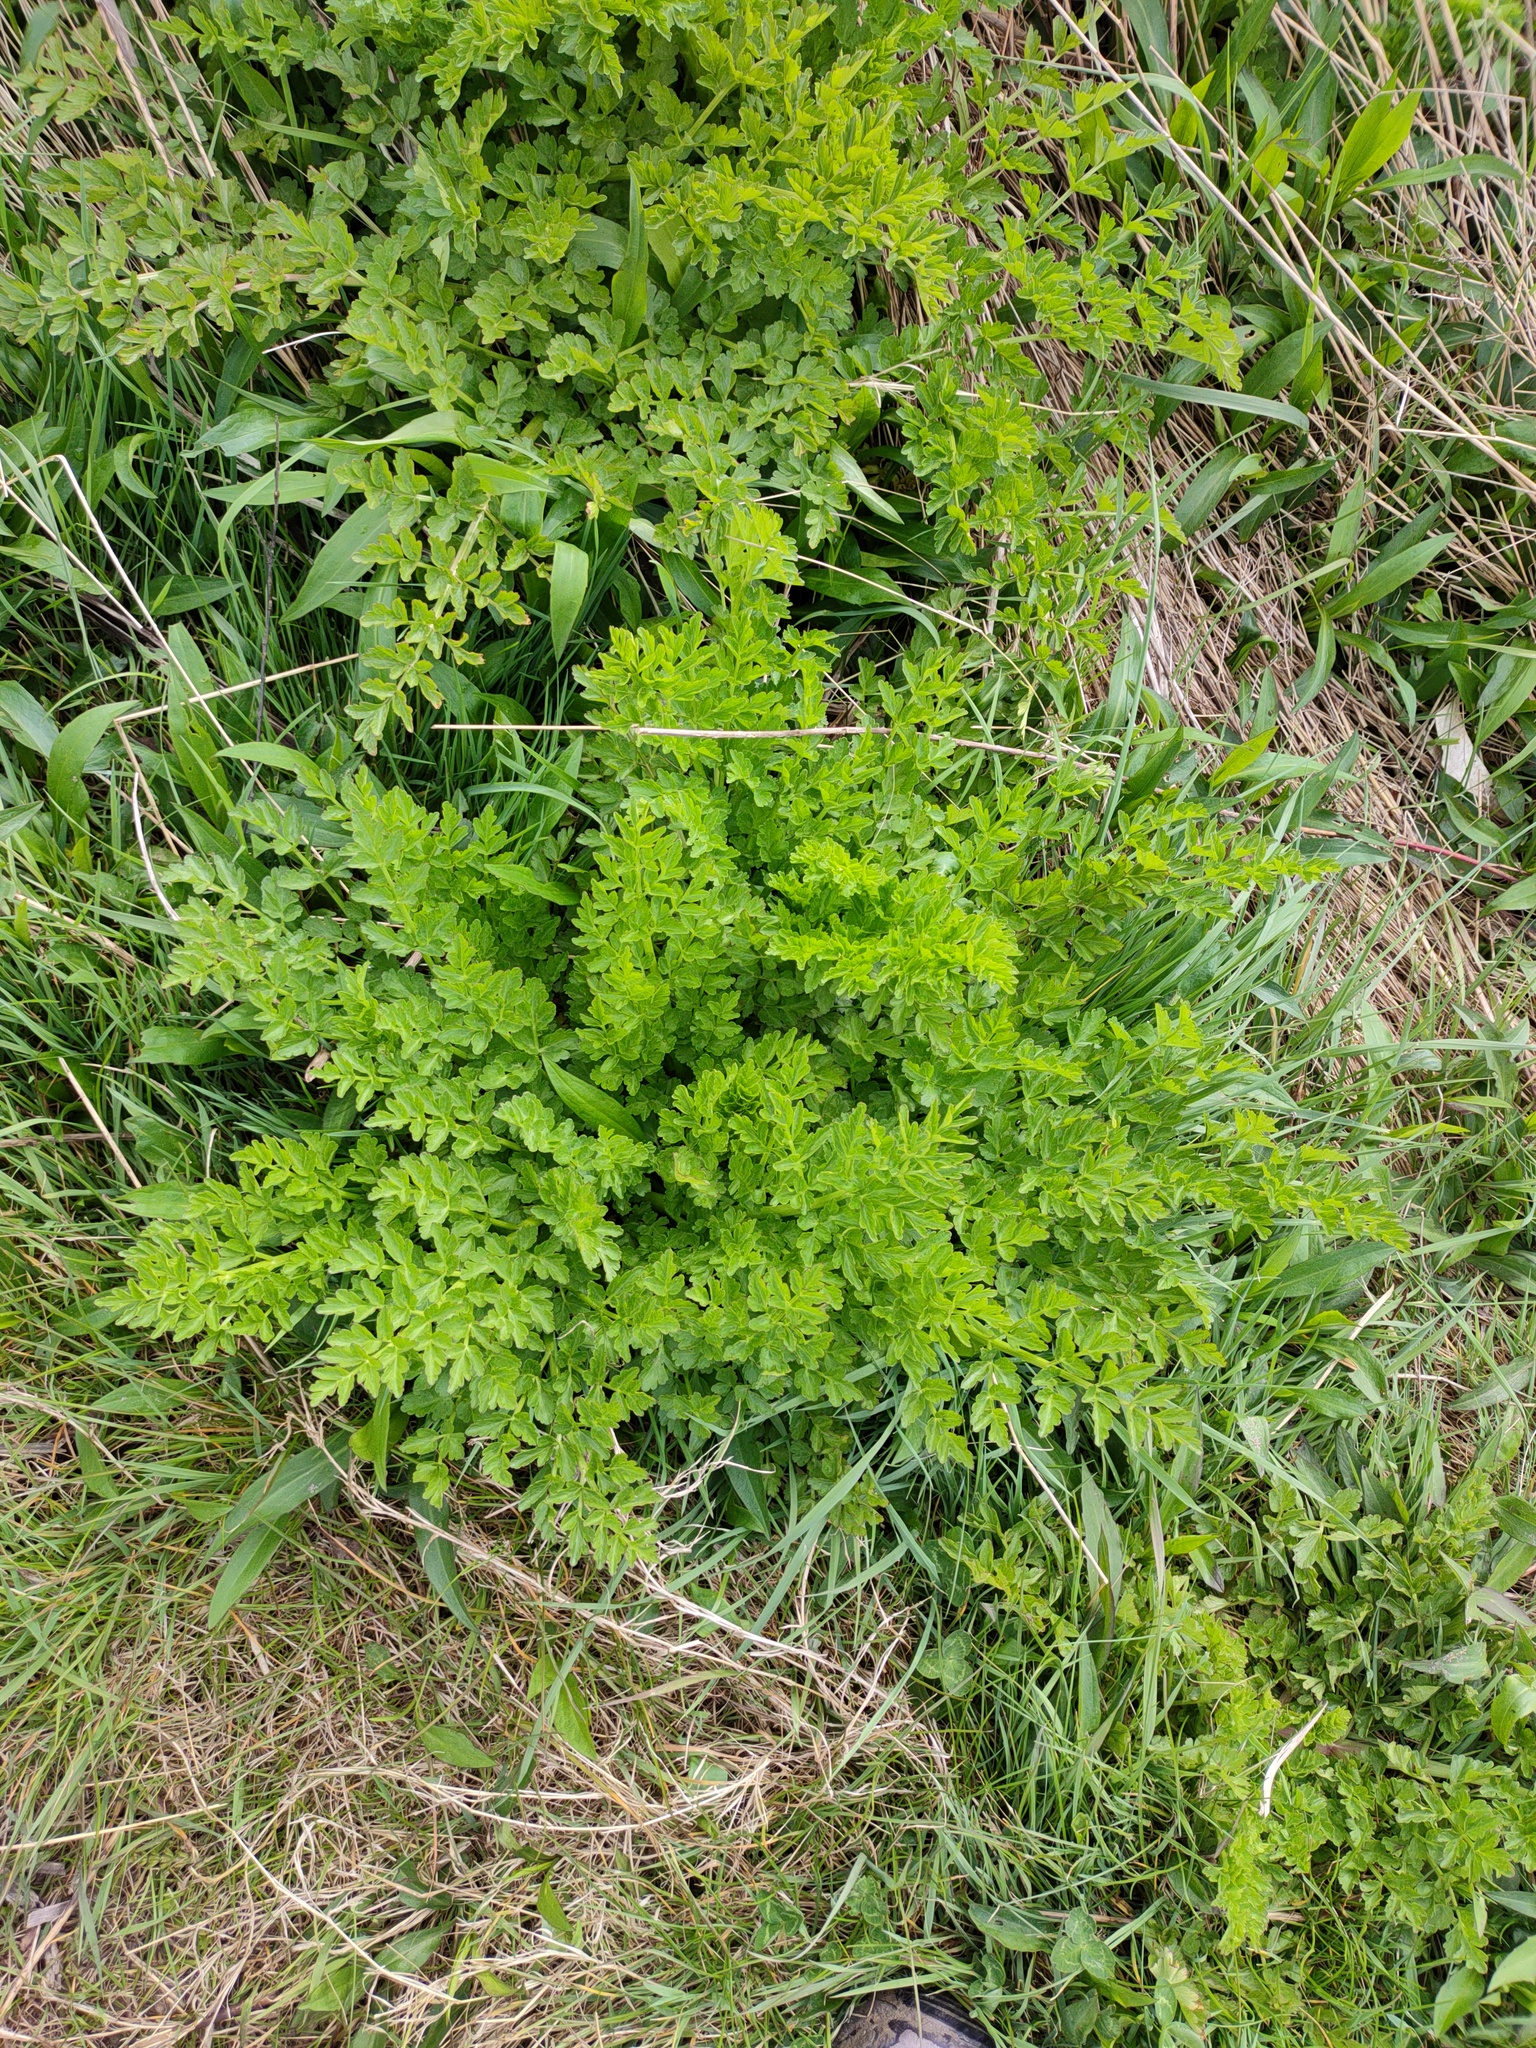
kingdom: Plantae
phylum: Tracheophyta
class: Magnoliopsida
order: Apiales
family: Apiaceae
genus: Oenanthe
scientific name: Oenanthe crocata
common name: Hemlock water-dropwort
